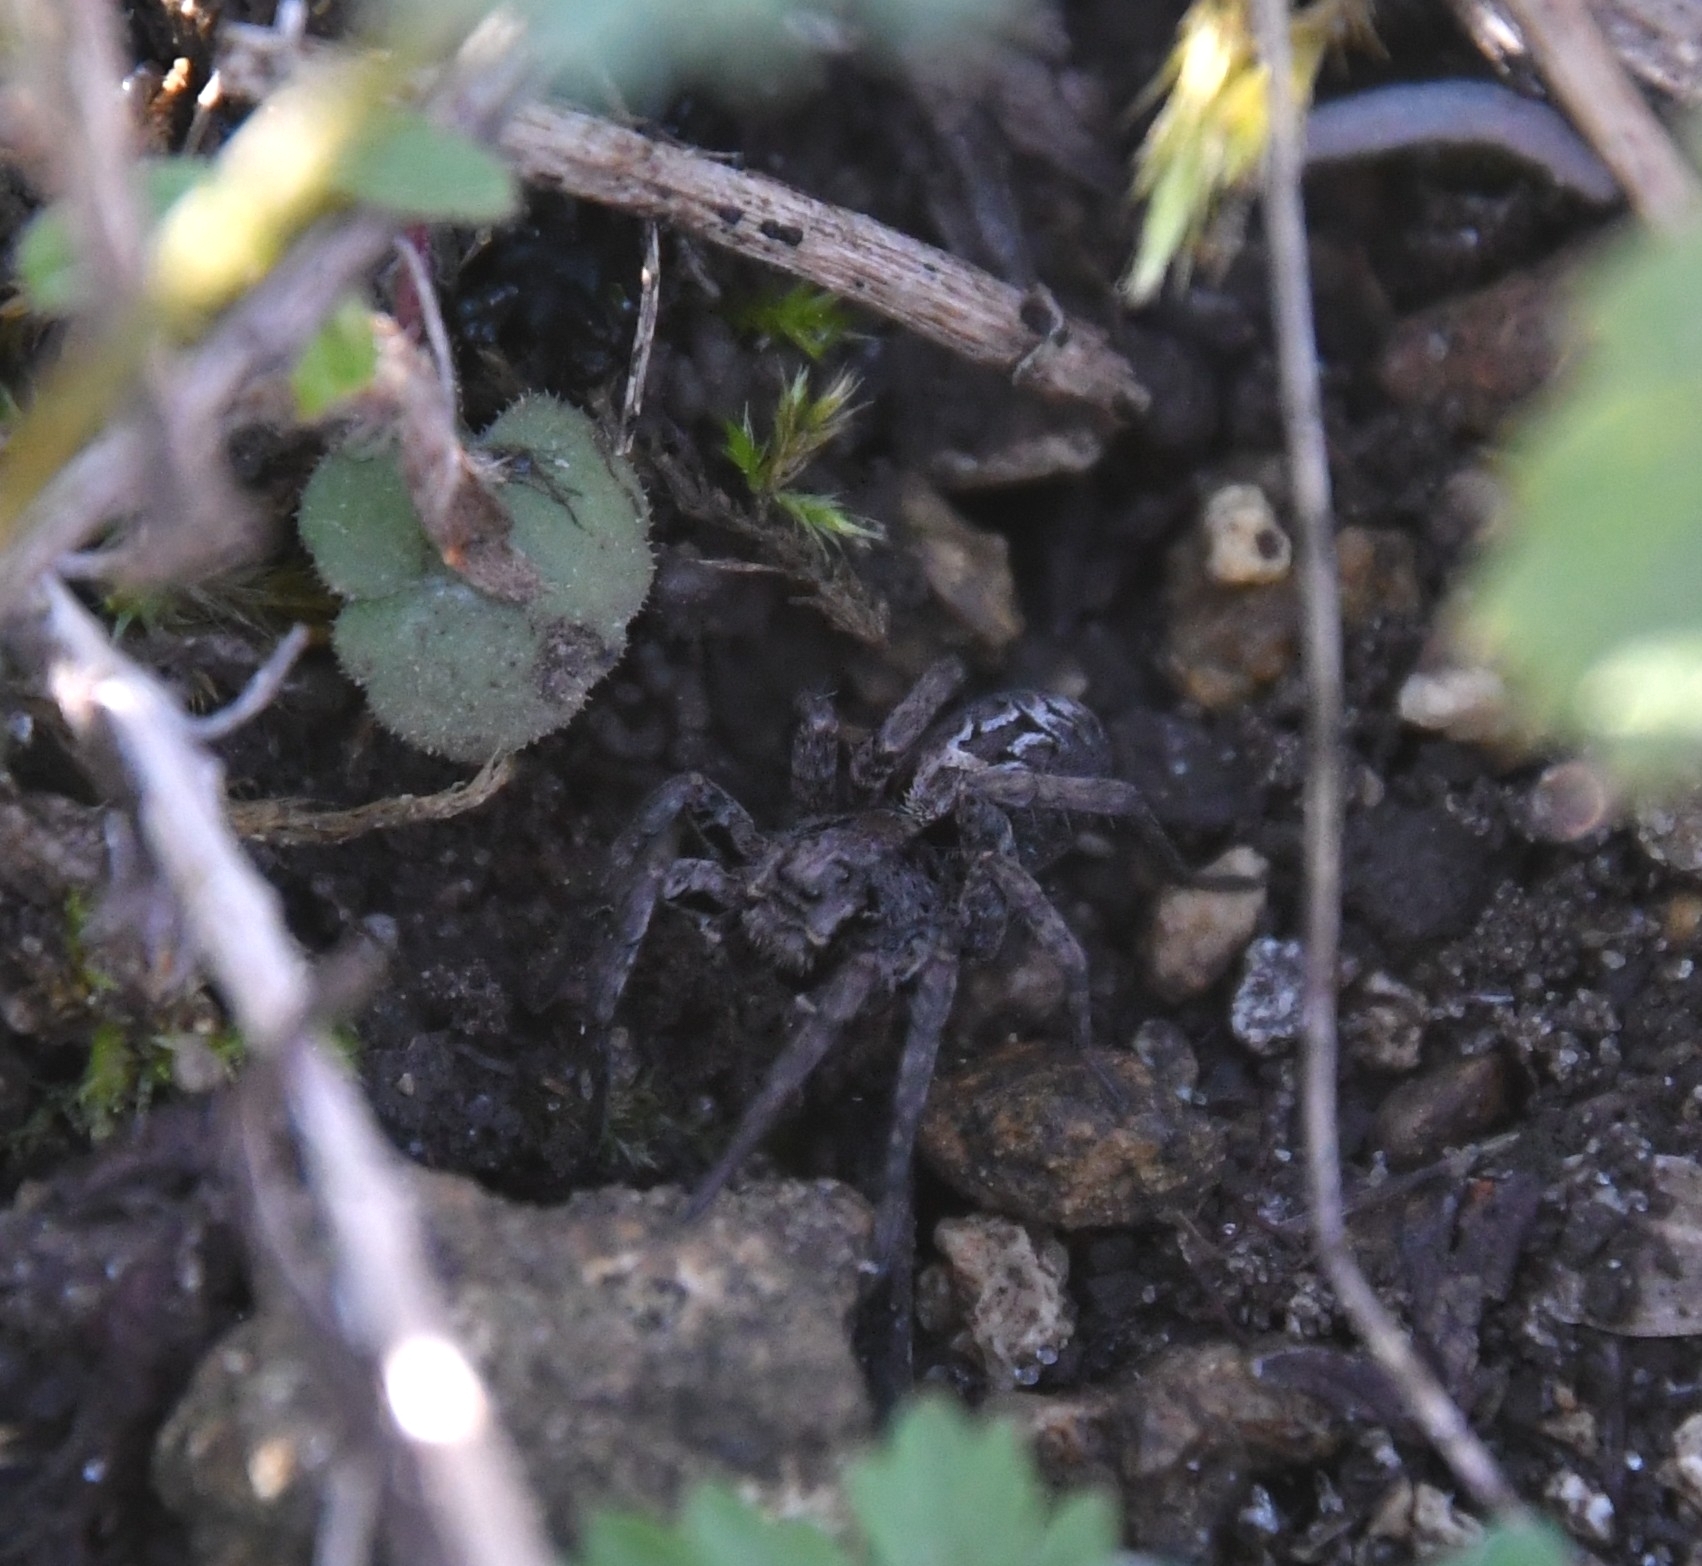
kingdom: Animalia
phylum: Arthropoda
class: Arachnida
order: Araneae
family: Lycosidae
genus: Alopecosa
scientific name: Alopecosa farinosa
